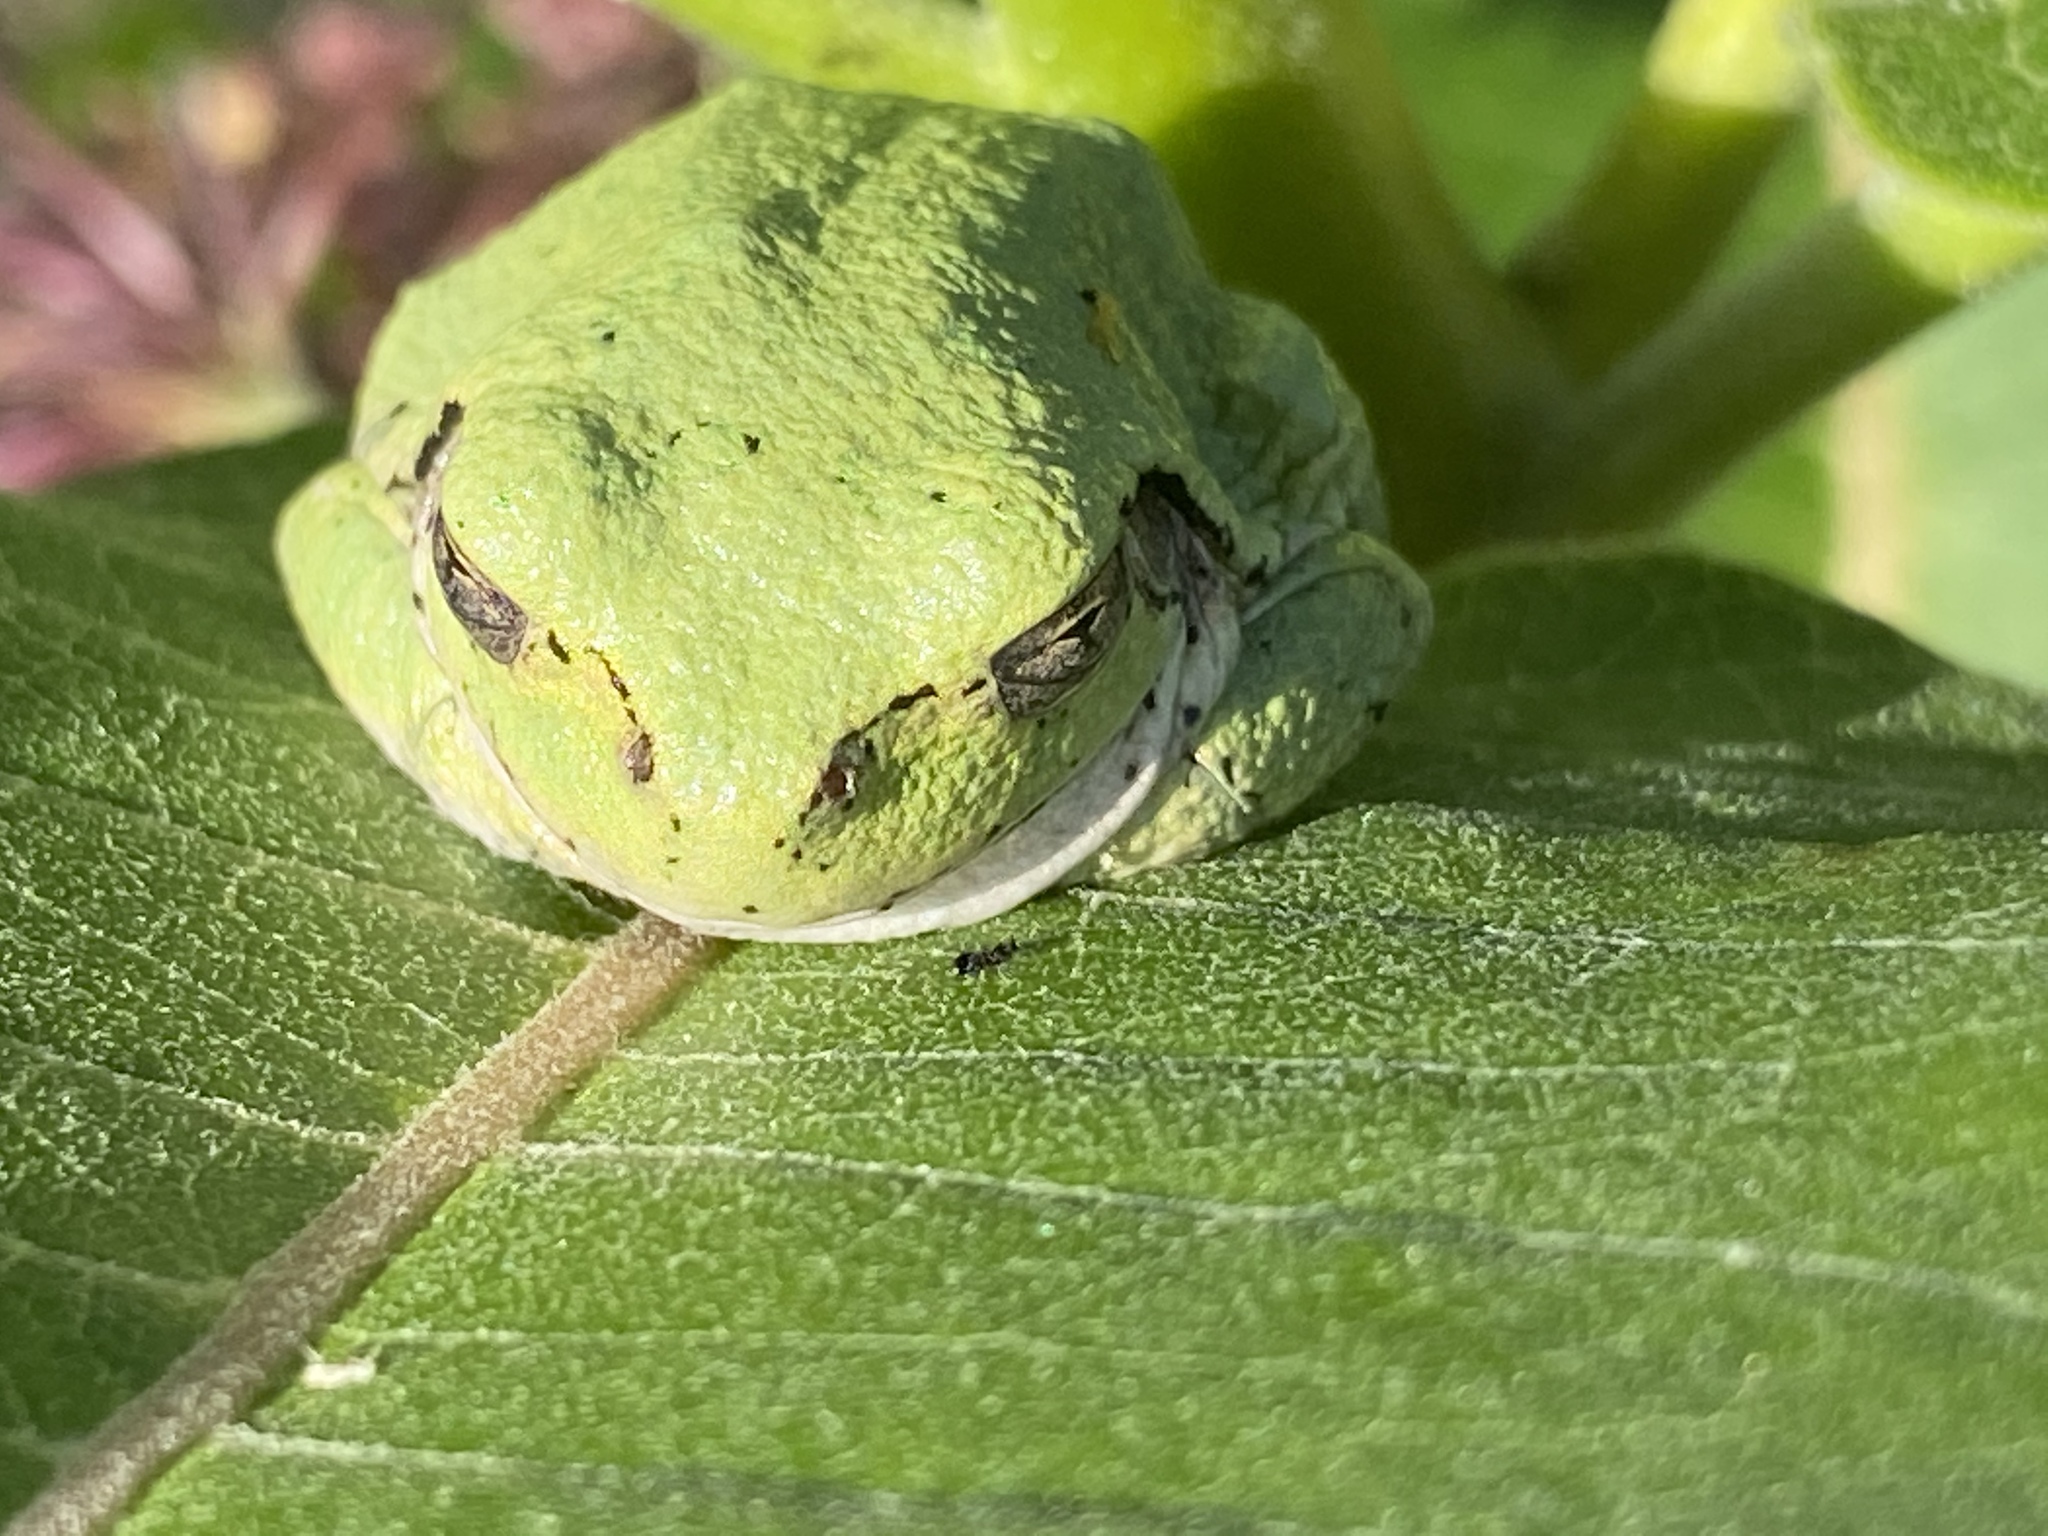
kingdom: Animalia
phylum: Chordata
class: Amphibia
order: Anura
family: Hylidae
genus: Hyla
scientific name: Hyla
